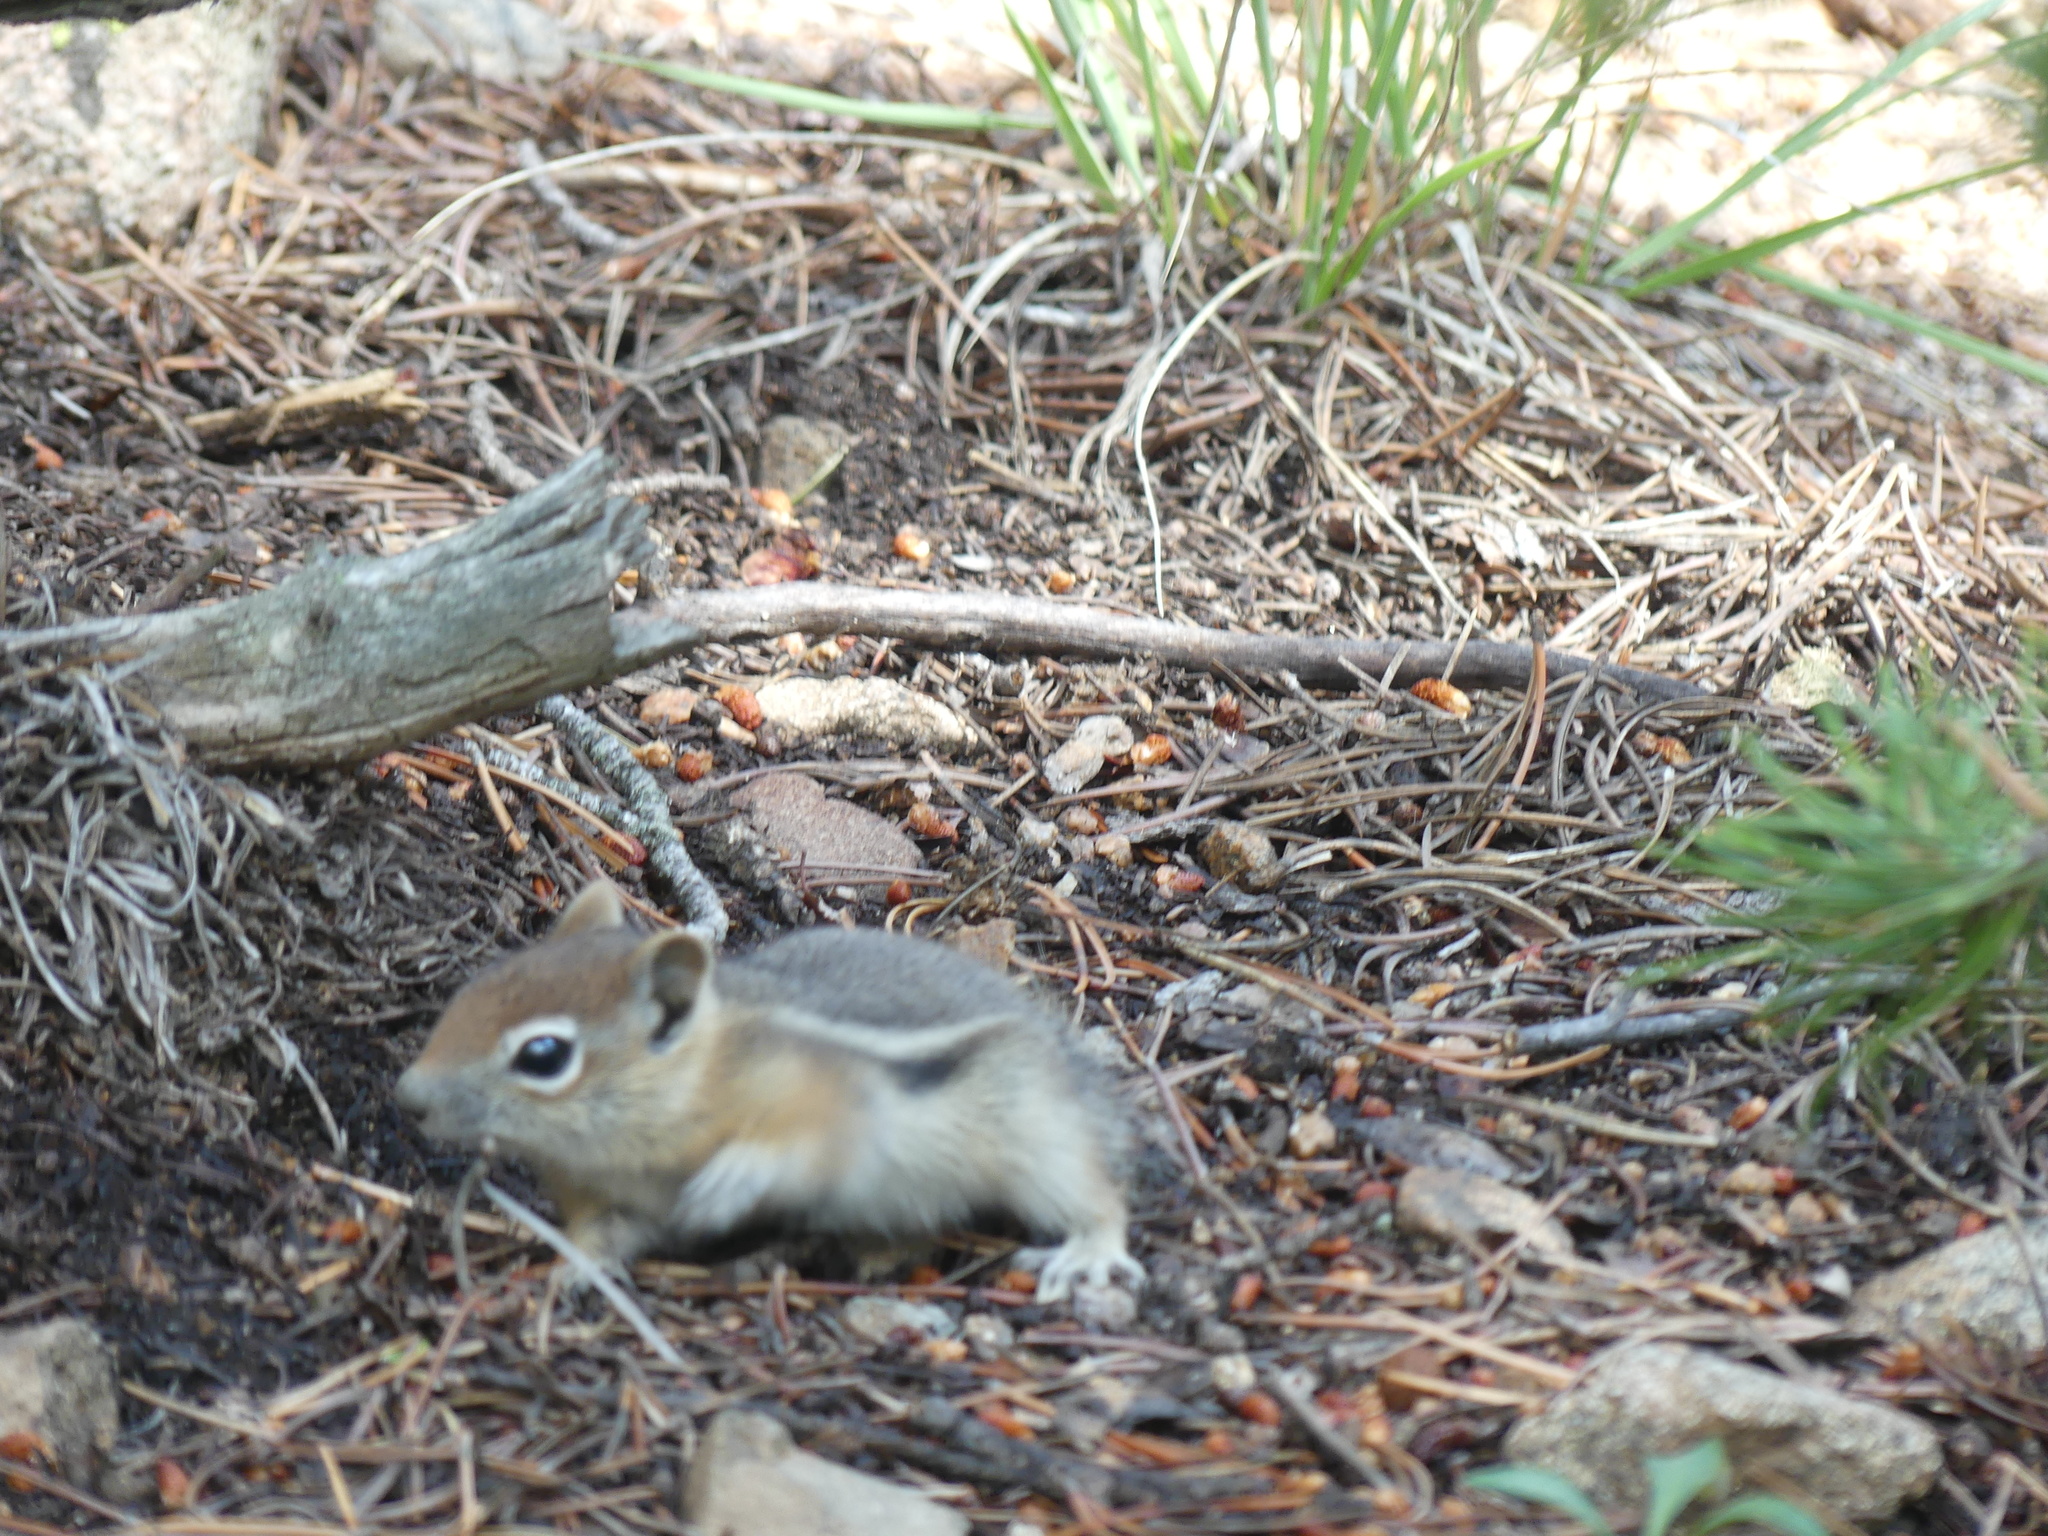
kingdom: Animalia
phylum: Chordata
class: Mammalia
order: Rodentia
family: Sciuridae
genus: Callospermophilus
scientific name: Callospermophilus lateralis
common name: Golden-mantled ground squirrel
